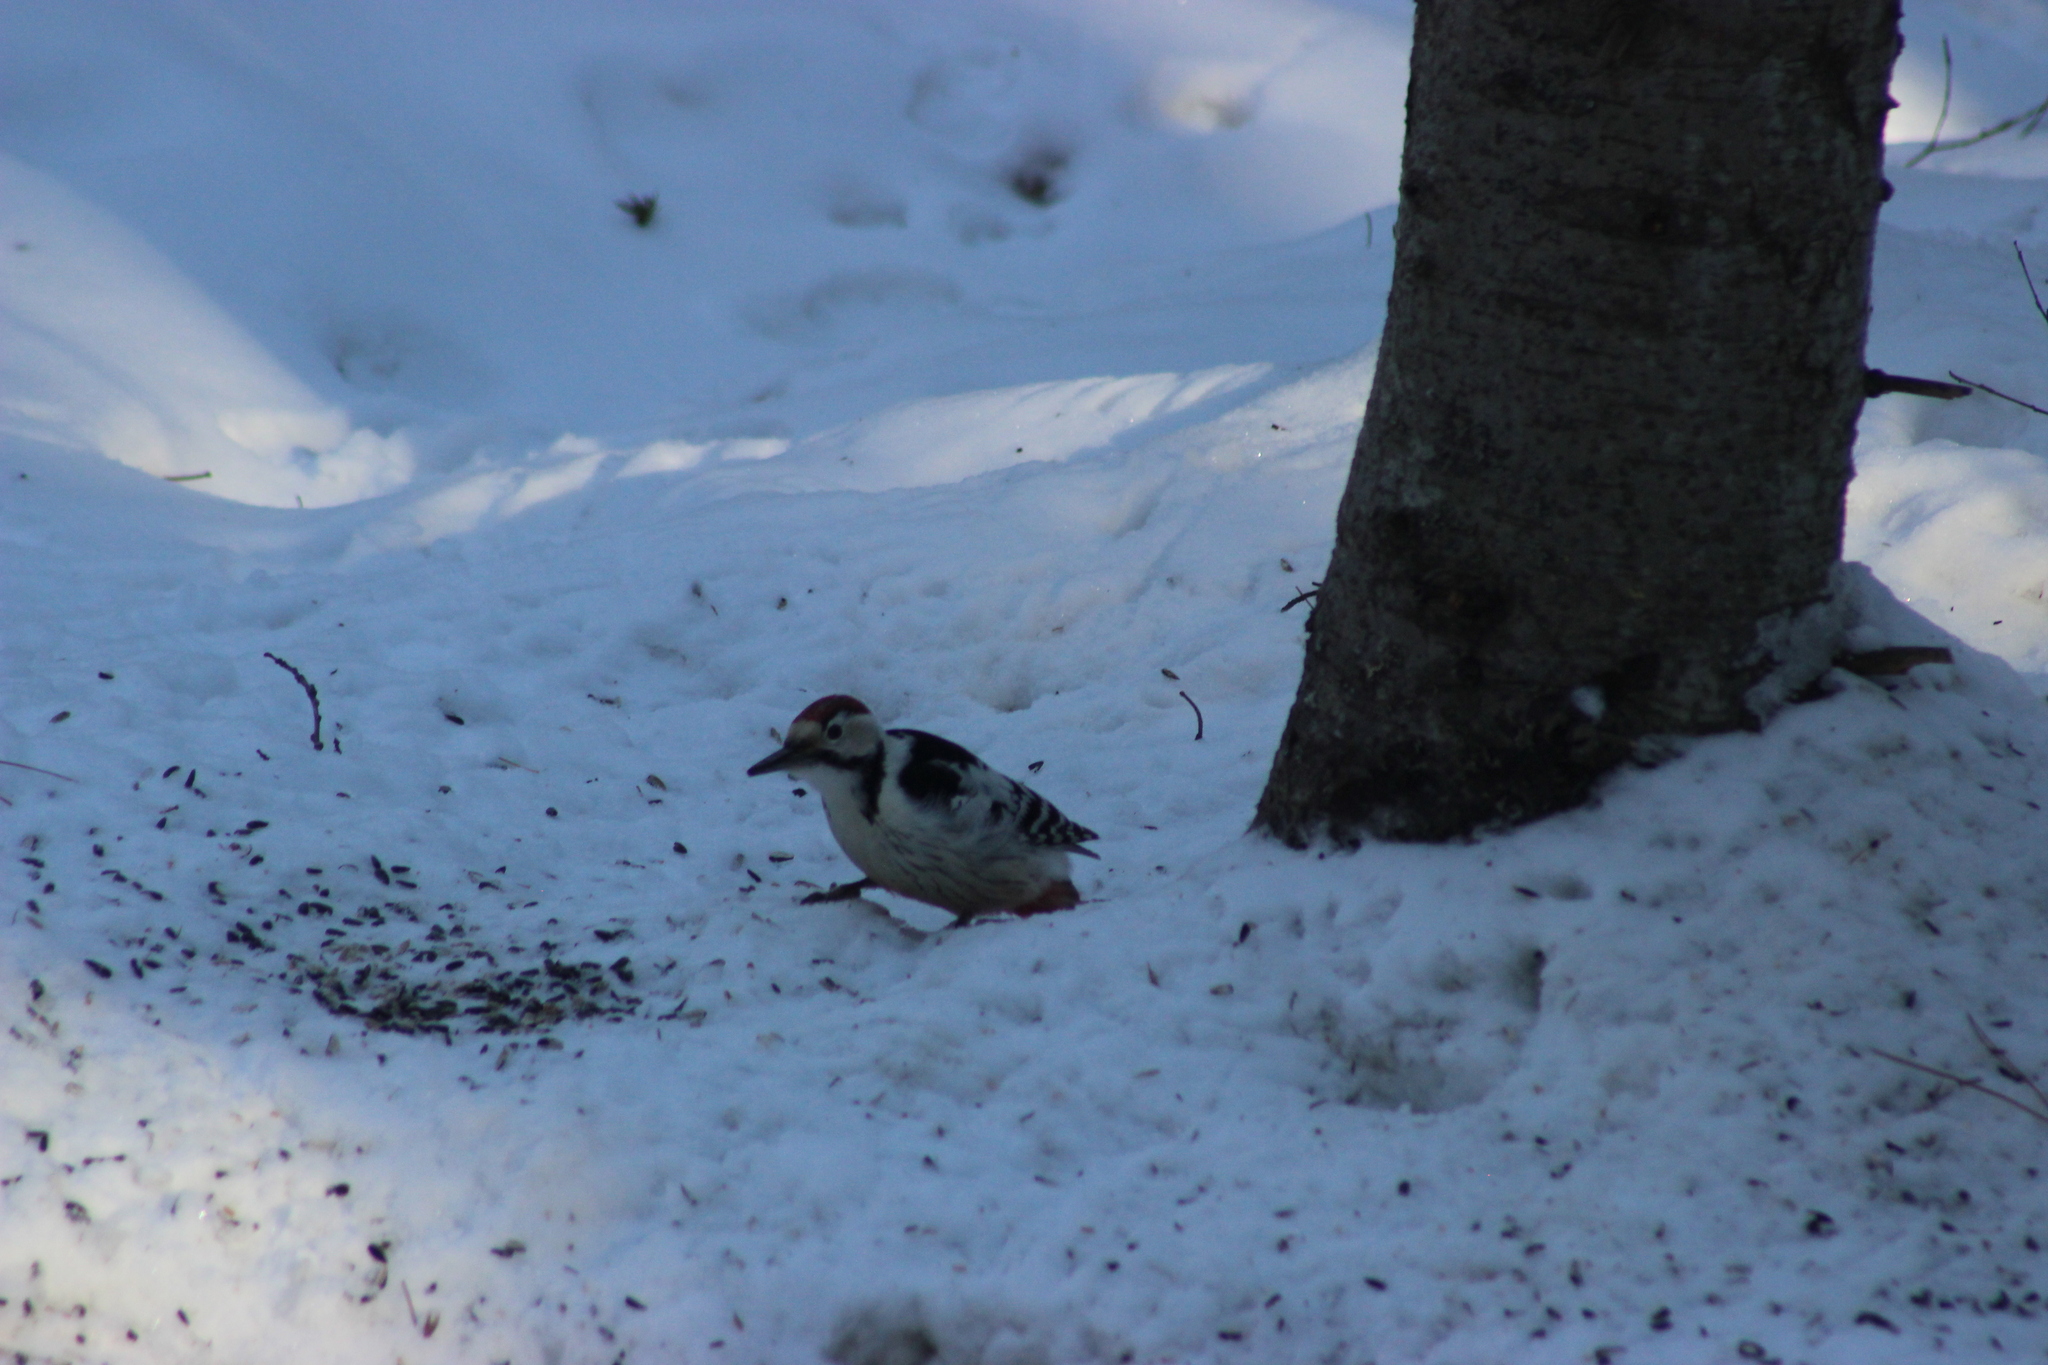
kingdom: Animalia
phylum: Chordata
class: Aves
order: Piciformes
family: Picidae
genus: Dendrocopos
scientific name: Dendrocopos leucotos
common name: White-backed woodpecker
